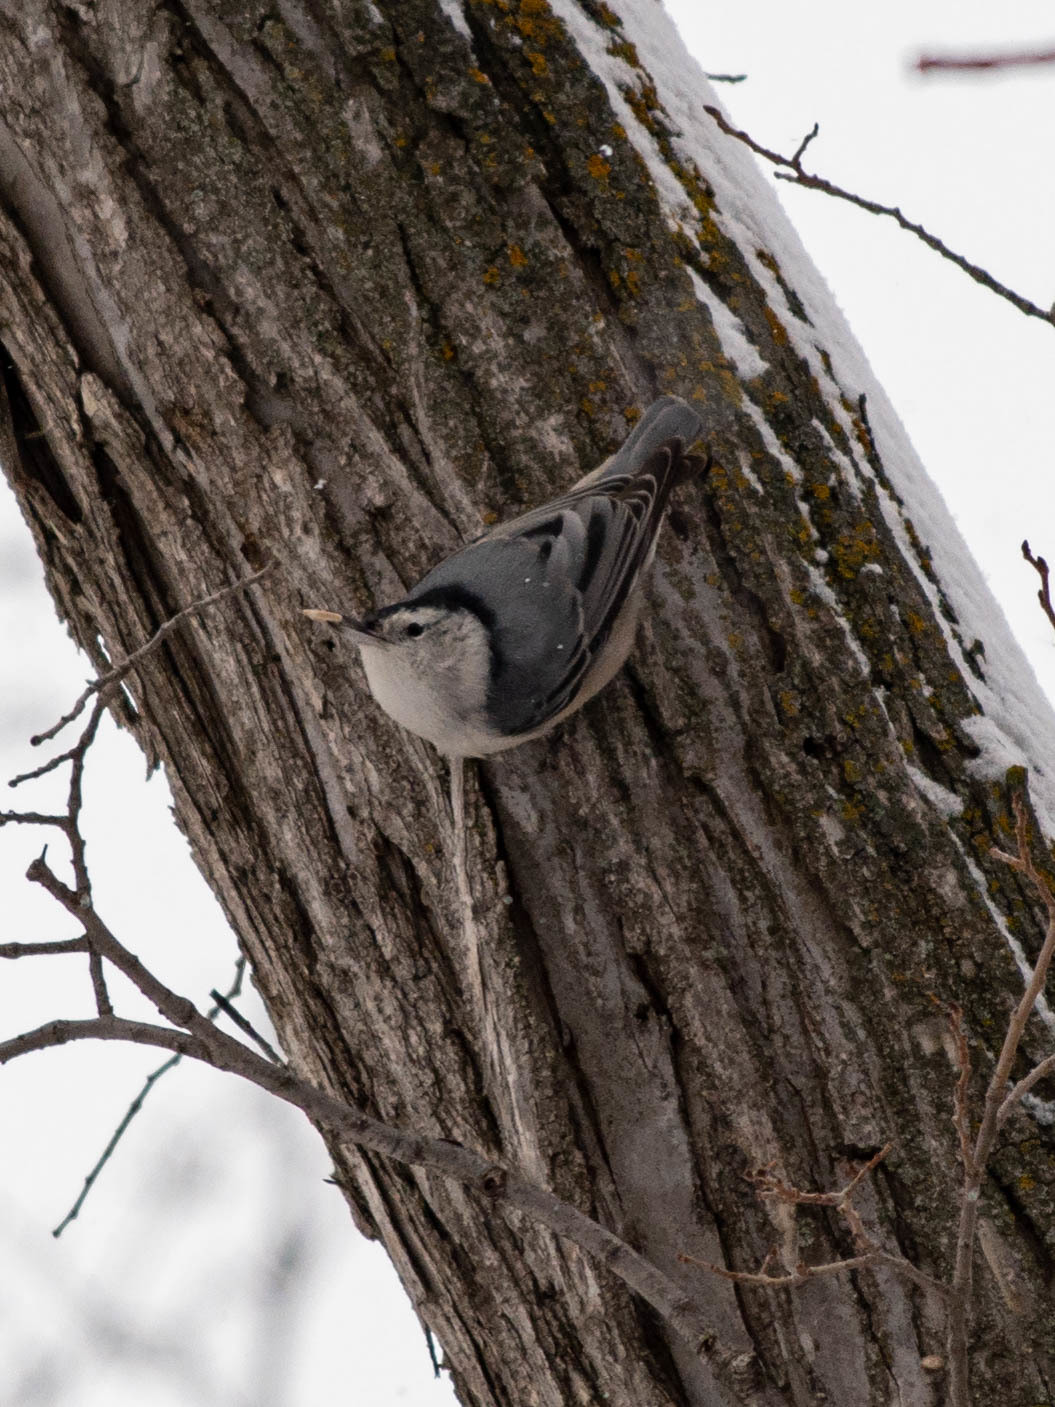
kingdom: Animalia
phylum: Chordata
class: Aves
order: Passeriformes
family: Sittidae
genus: Sitta
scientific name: Sitta carolinensis
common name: White-breasted nuthatch
